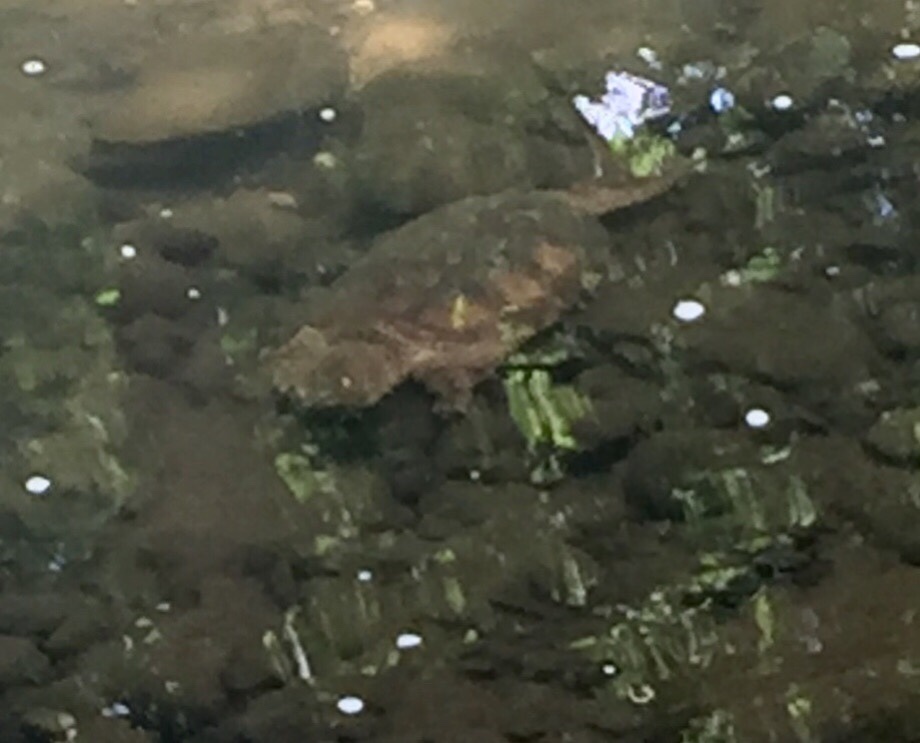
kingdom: Animalia
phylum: Chordata
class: Testudines
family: Chelydridae
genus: Chelydra
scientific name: Chelydra serpentina
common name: Common snapping turtle
